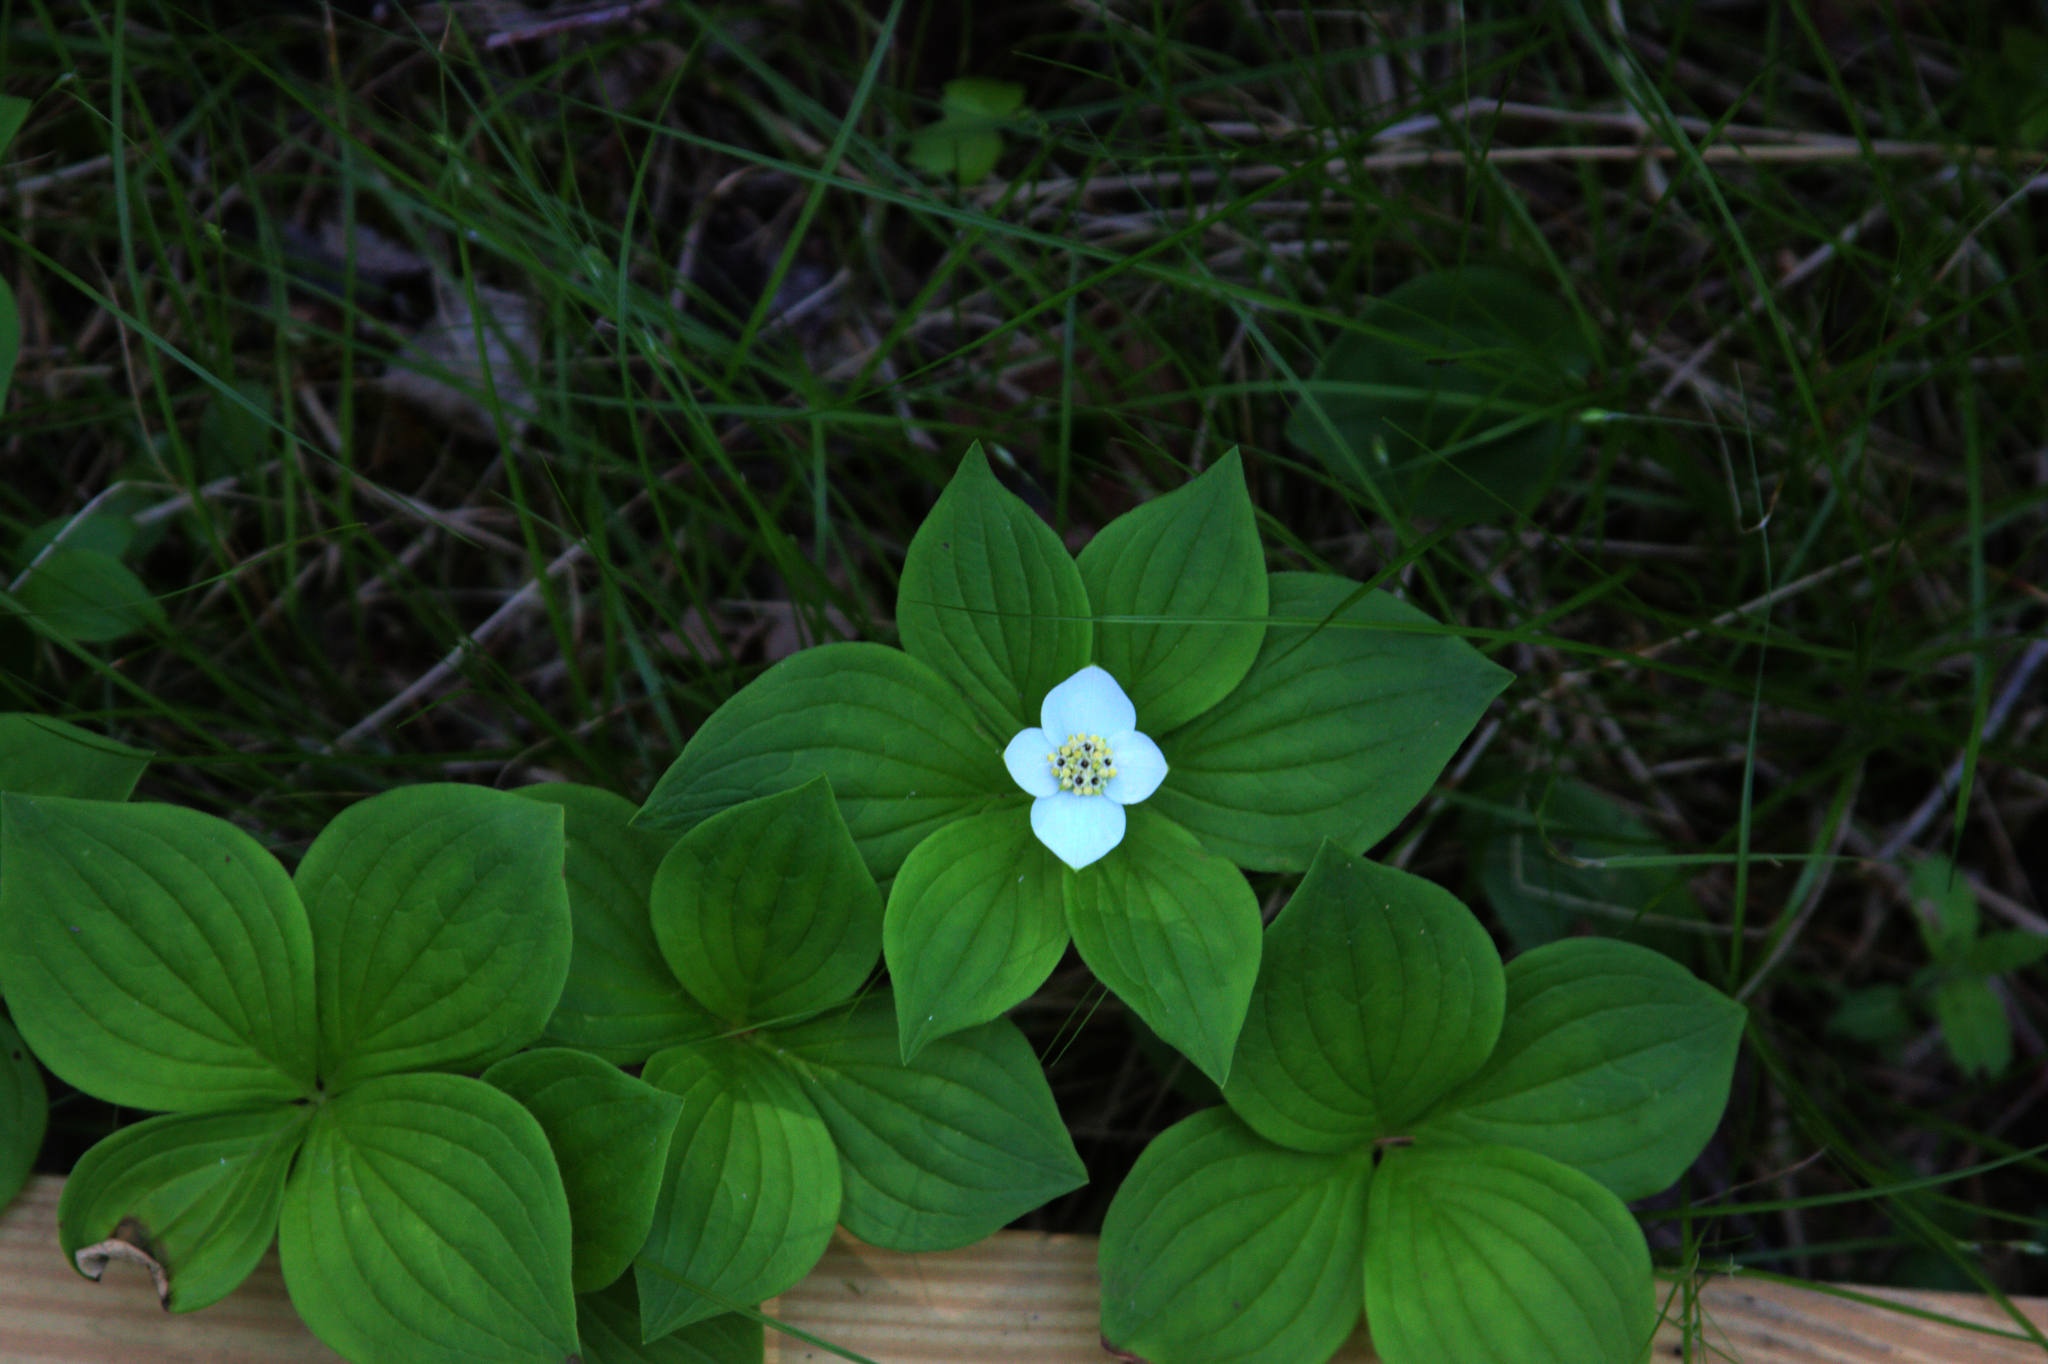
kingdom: Plantae
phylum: Tracheophyta
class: Magnoliopsida
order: Cornales
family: Cornaceae
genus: Cornus
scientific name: Cornus canadensis
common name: Creeping dogwood
